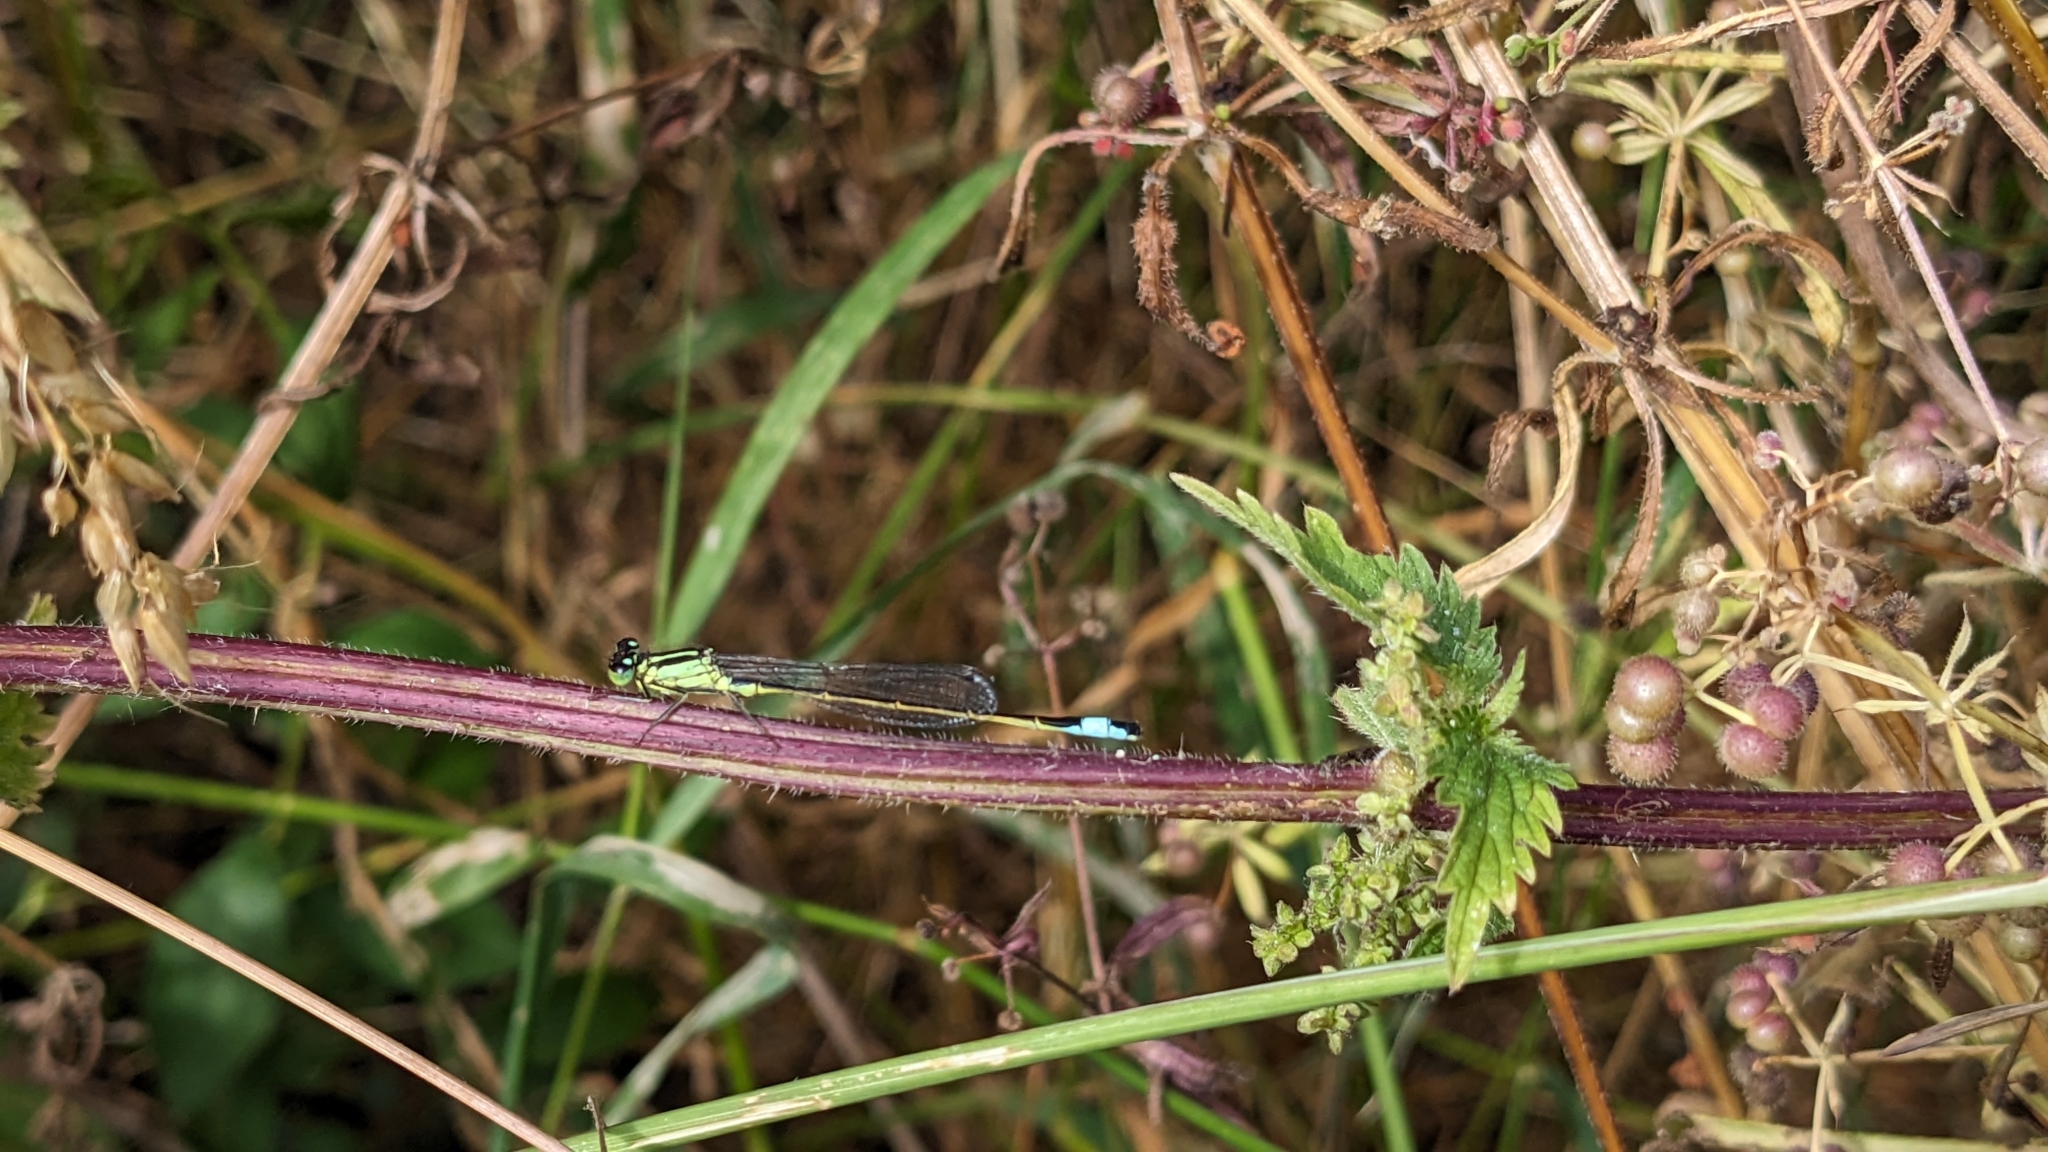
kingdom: Animalia
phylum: Arthropoda
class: Insecta
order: Odonata
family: Coenagrionidae
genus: Ischnura
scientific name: Ischnura elegans
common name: Blue-tailed damselfly
